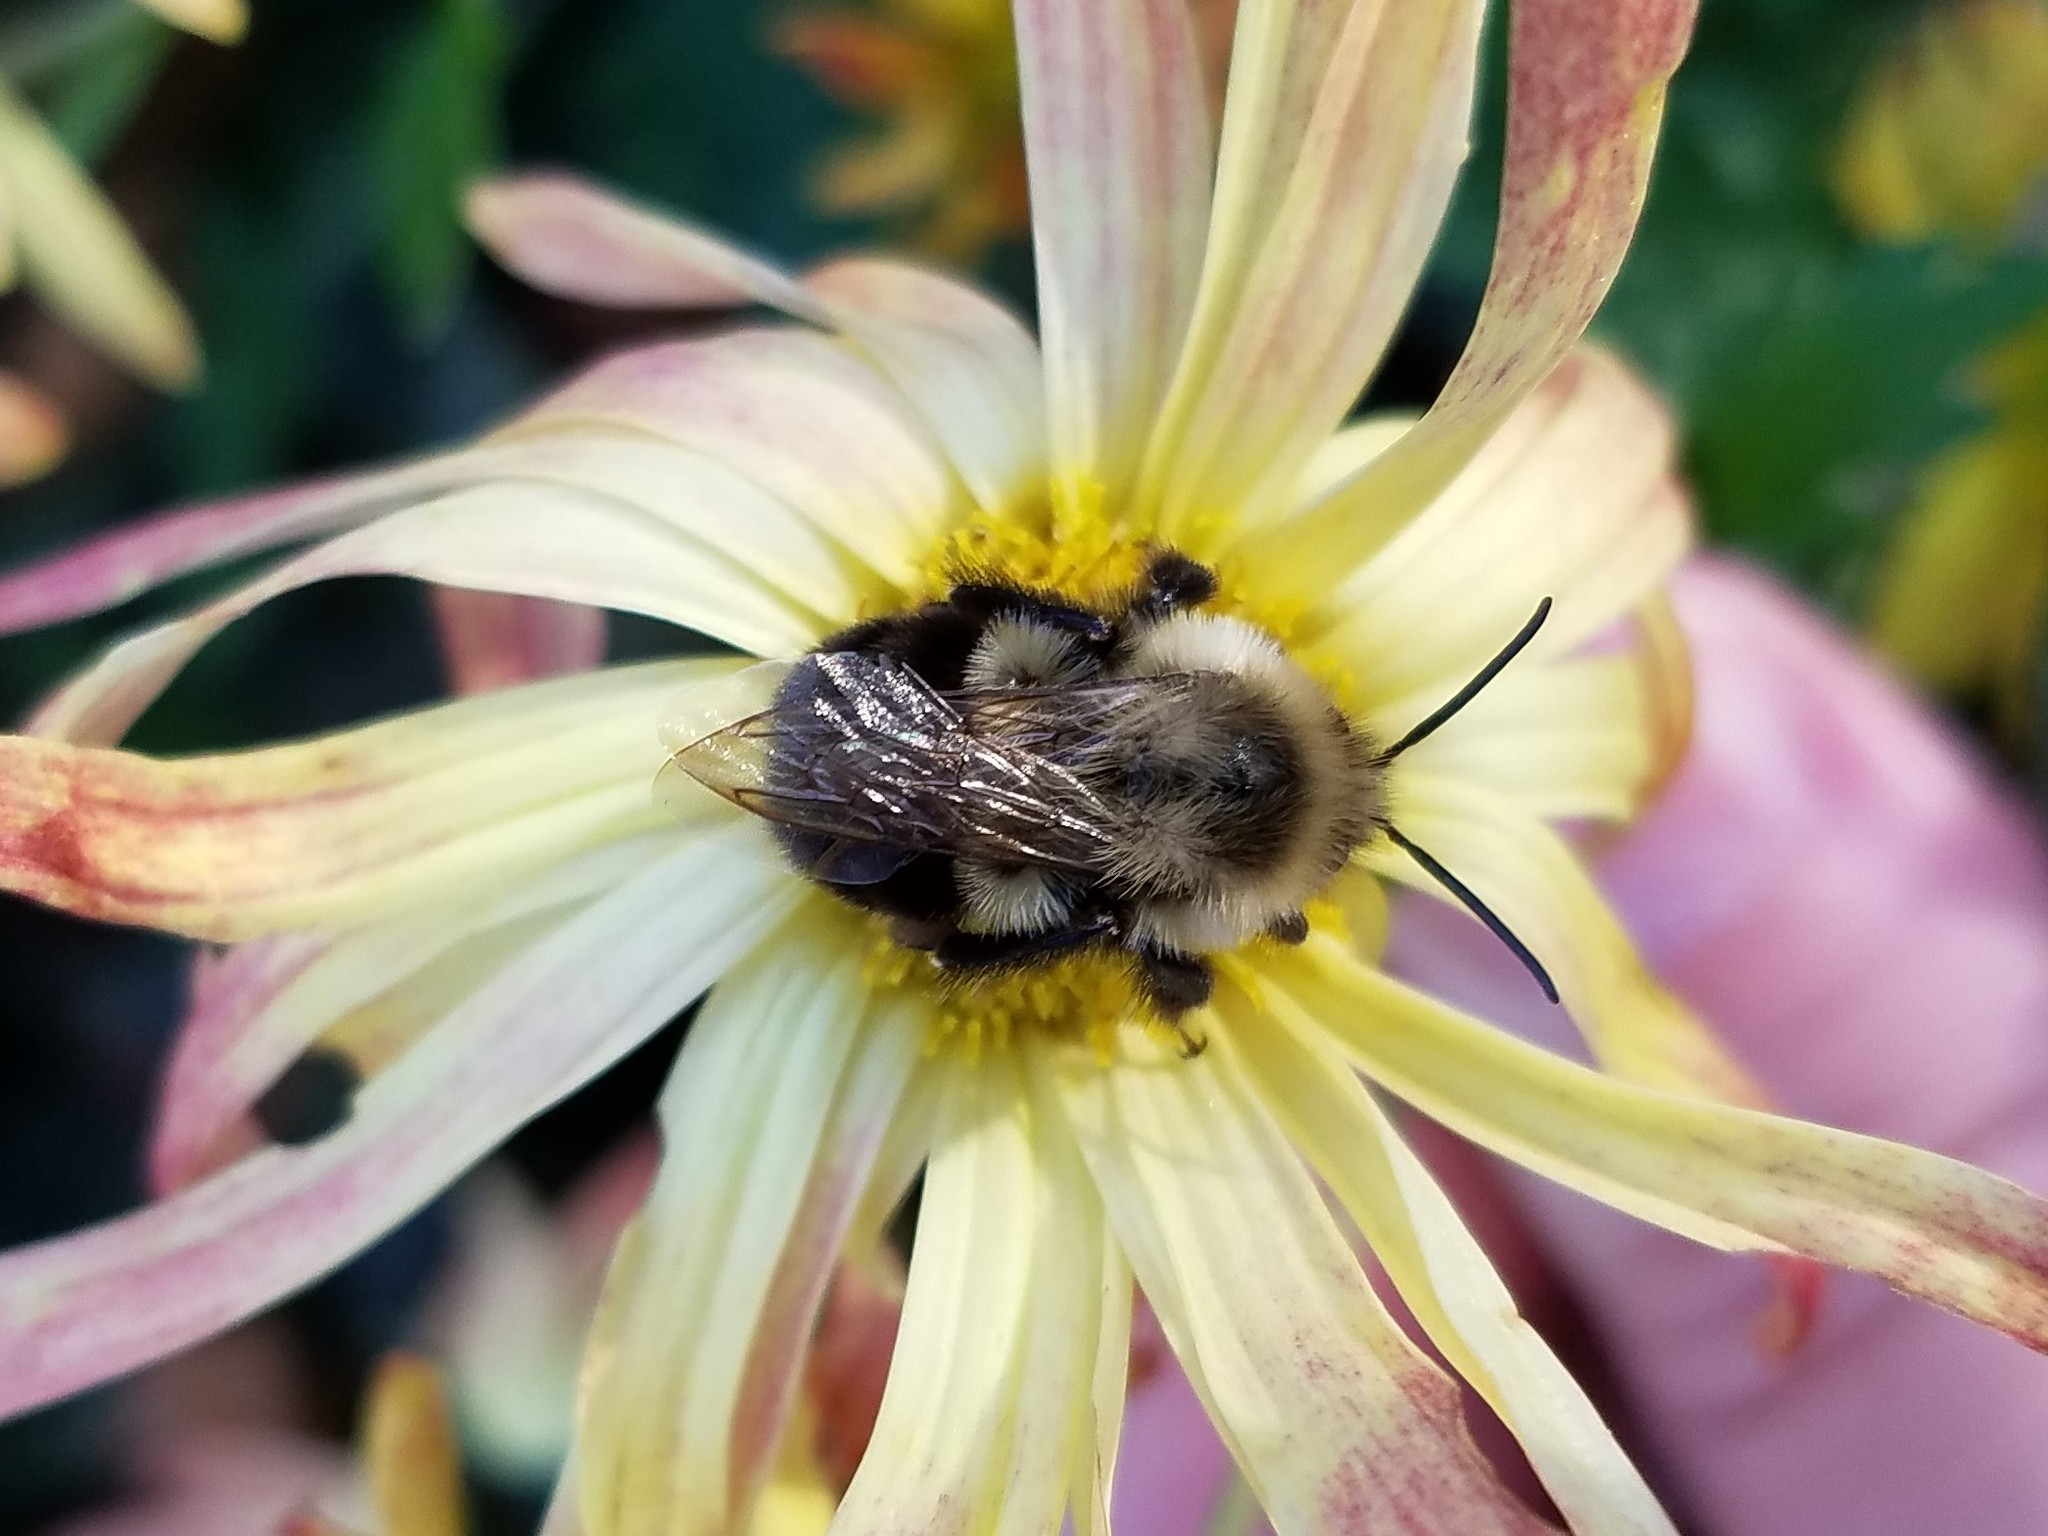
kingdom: Animalia
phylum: Arthropoda
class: Insecta
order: Hymenoptera
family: Apidae
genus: Bombus
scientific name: Bombus impatiens
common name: Common eastern bumble bee
